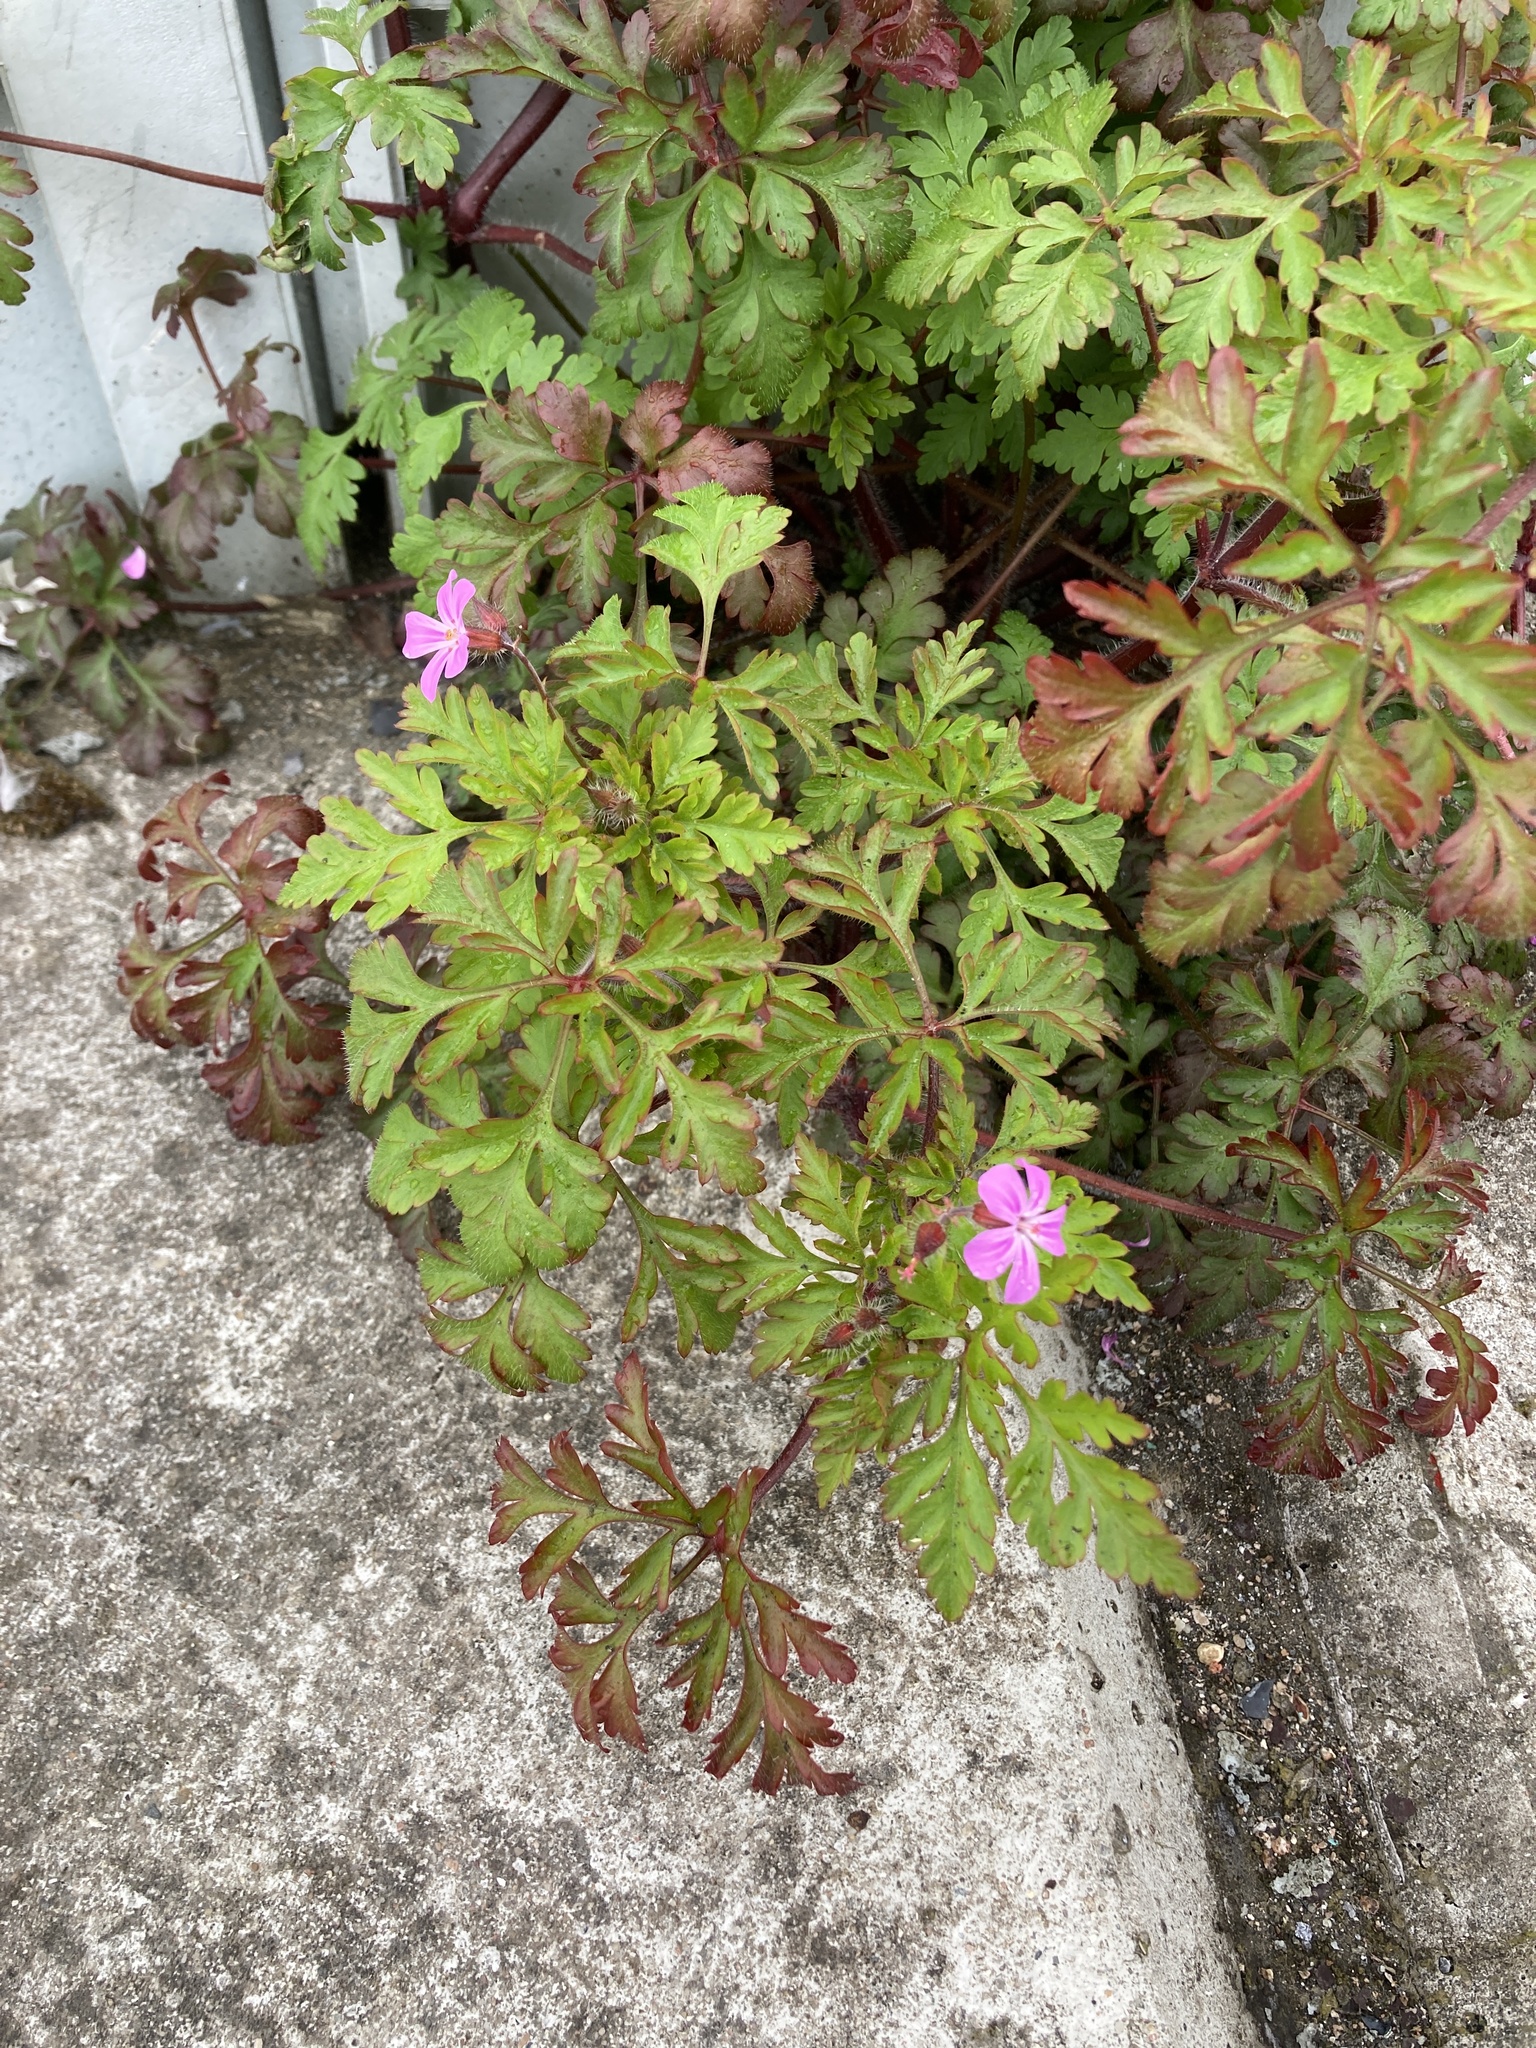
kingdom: Plantae
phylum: Tracheophyta
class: Magnoliopsida
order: Geraniales
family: Geraniaceae
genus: Geranium
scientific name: Geranium robertianum
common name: Herb-robert
